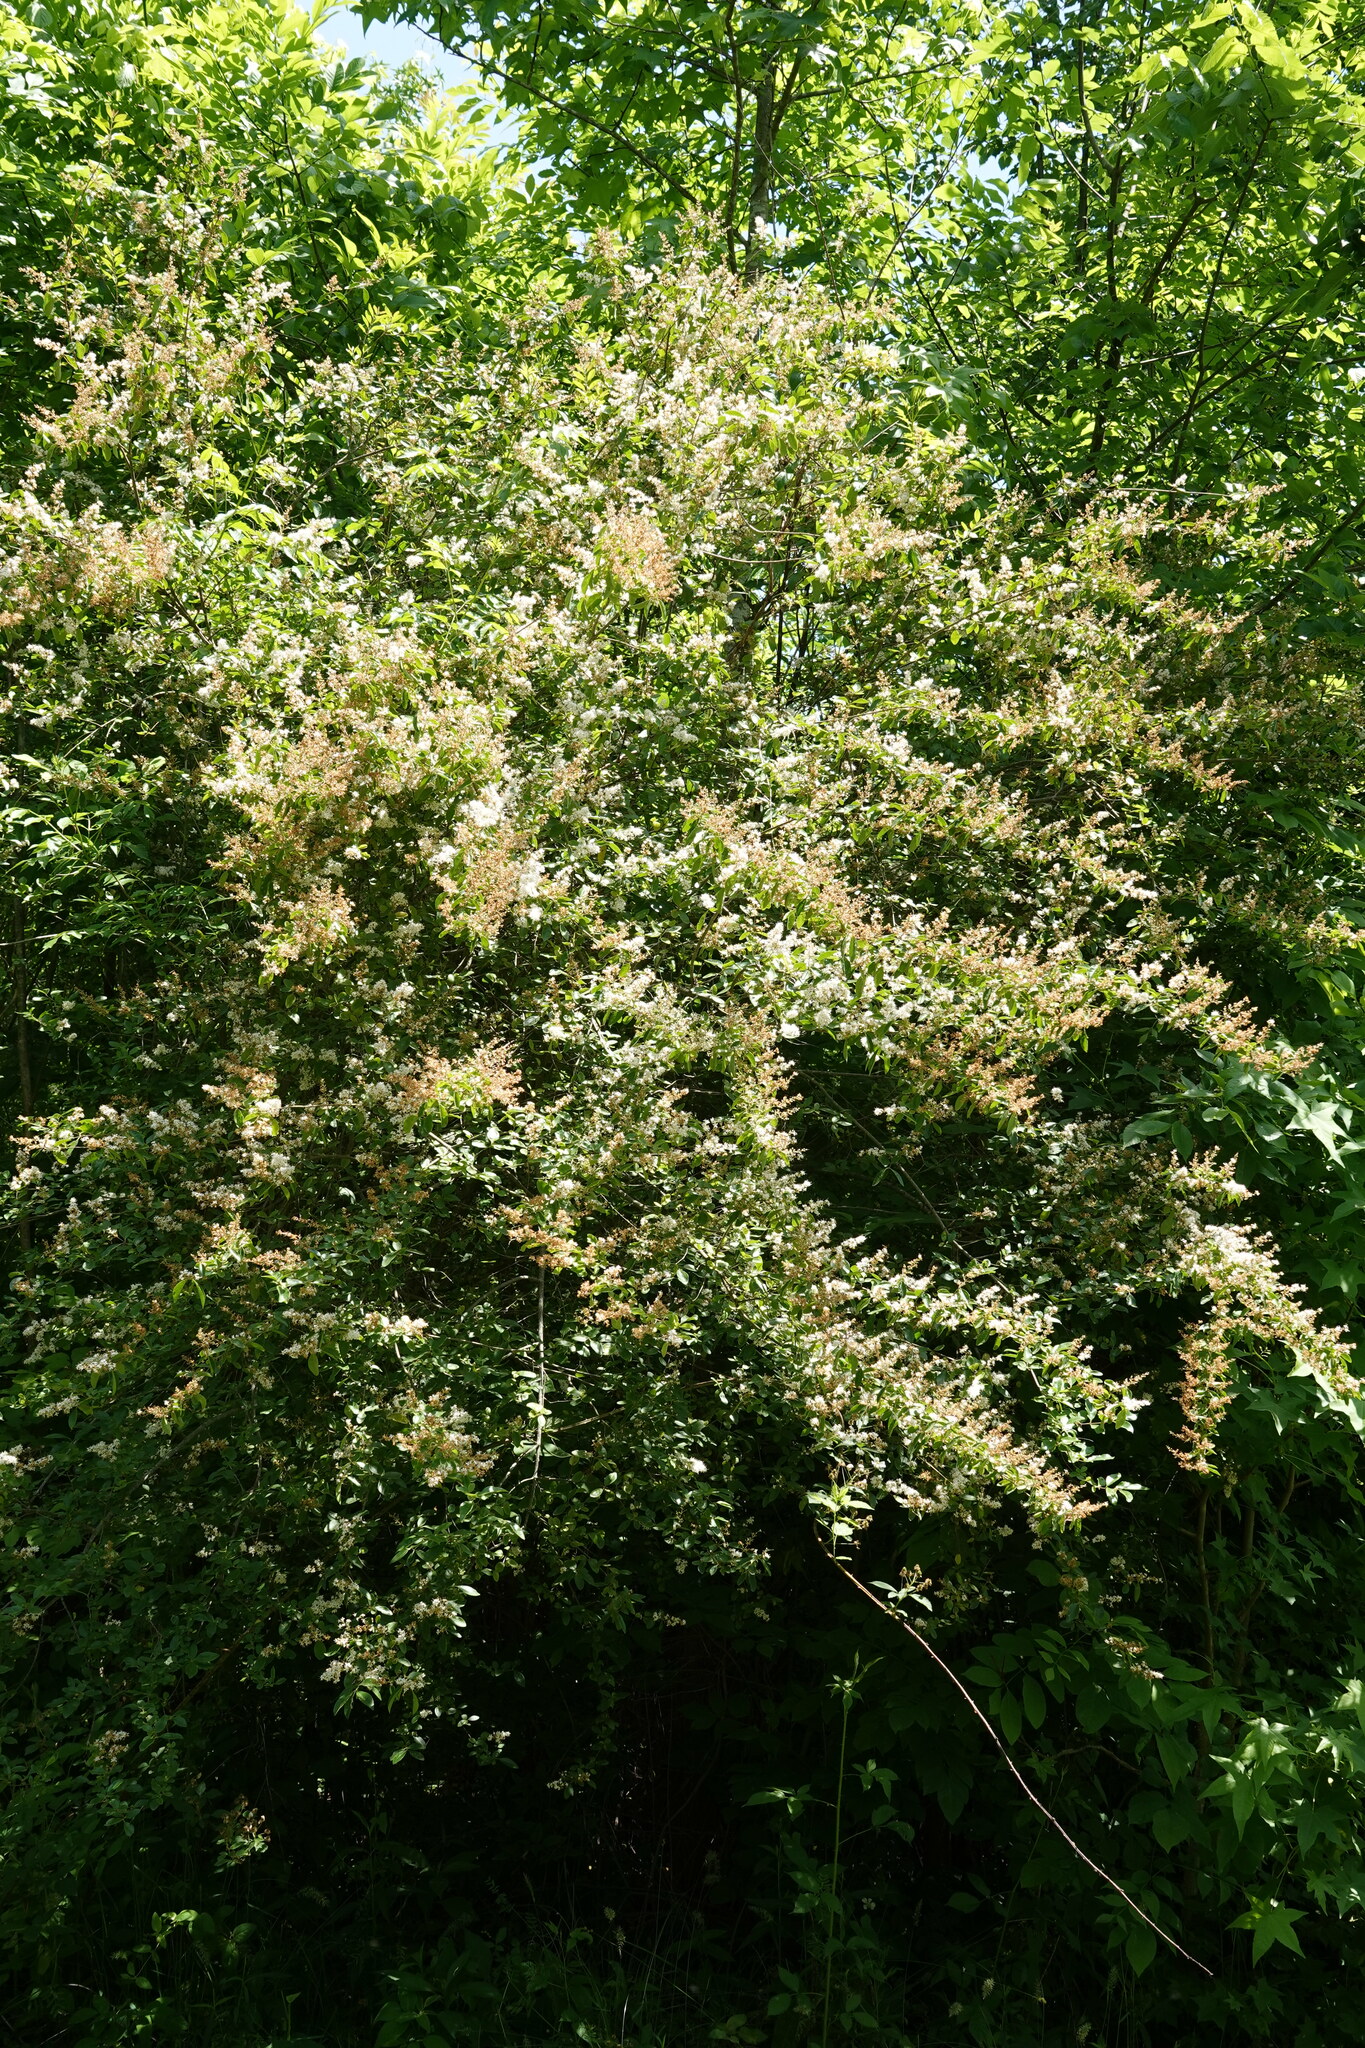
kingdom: Plantae
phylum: Tracheophyta
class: Magnoliopsida
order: Lamiales
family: Oleaceae
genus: Ligustrum
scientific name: Ligustrum sinense
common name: Chinese privet
